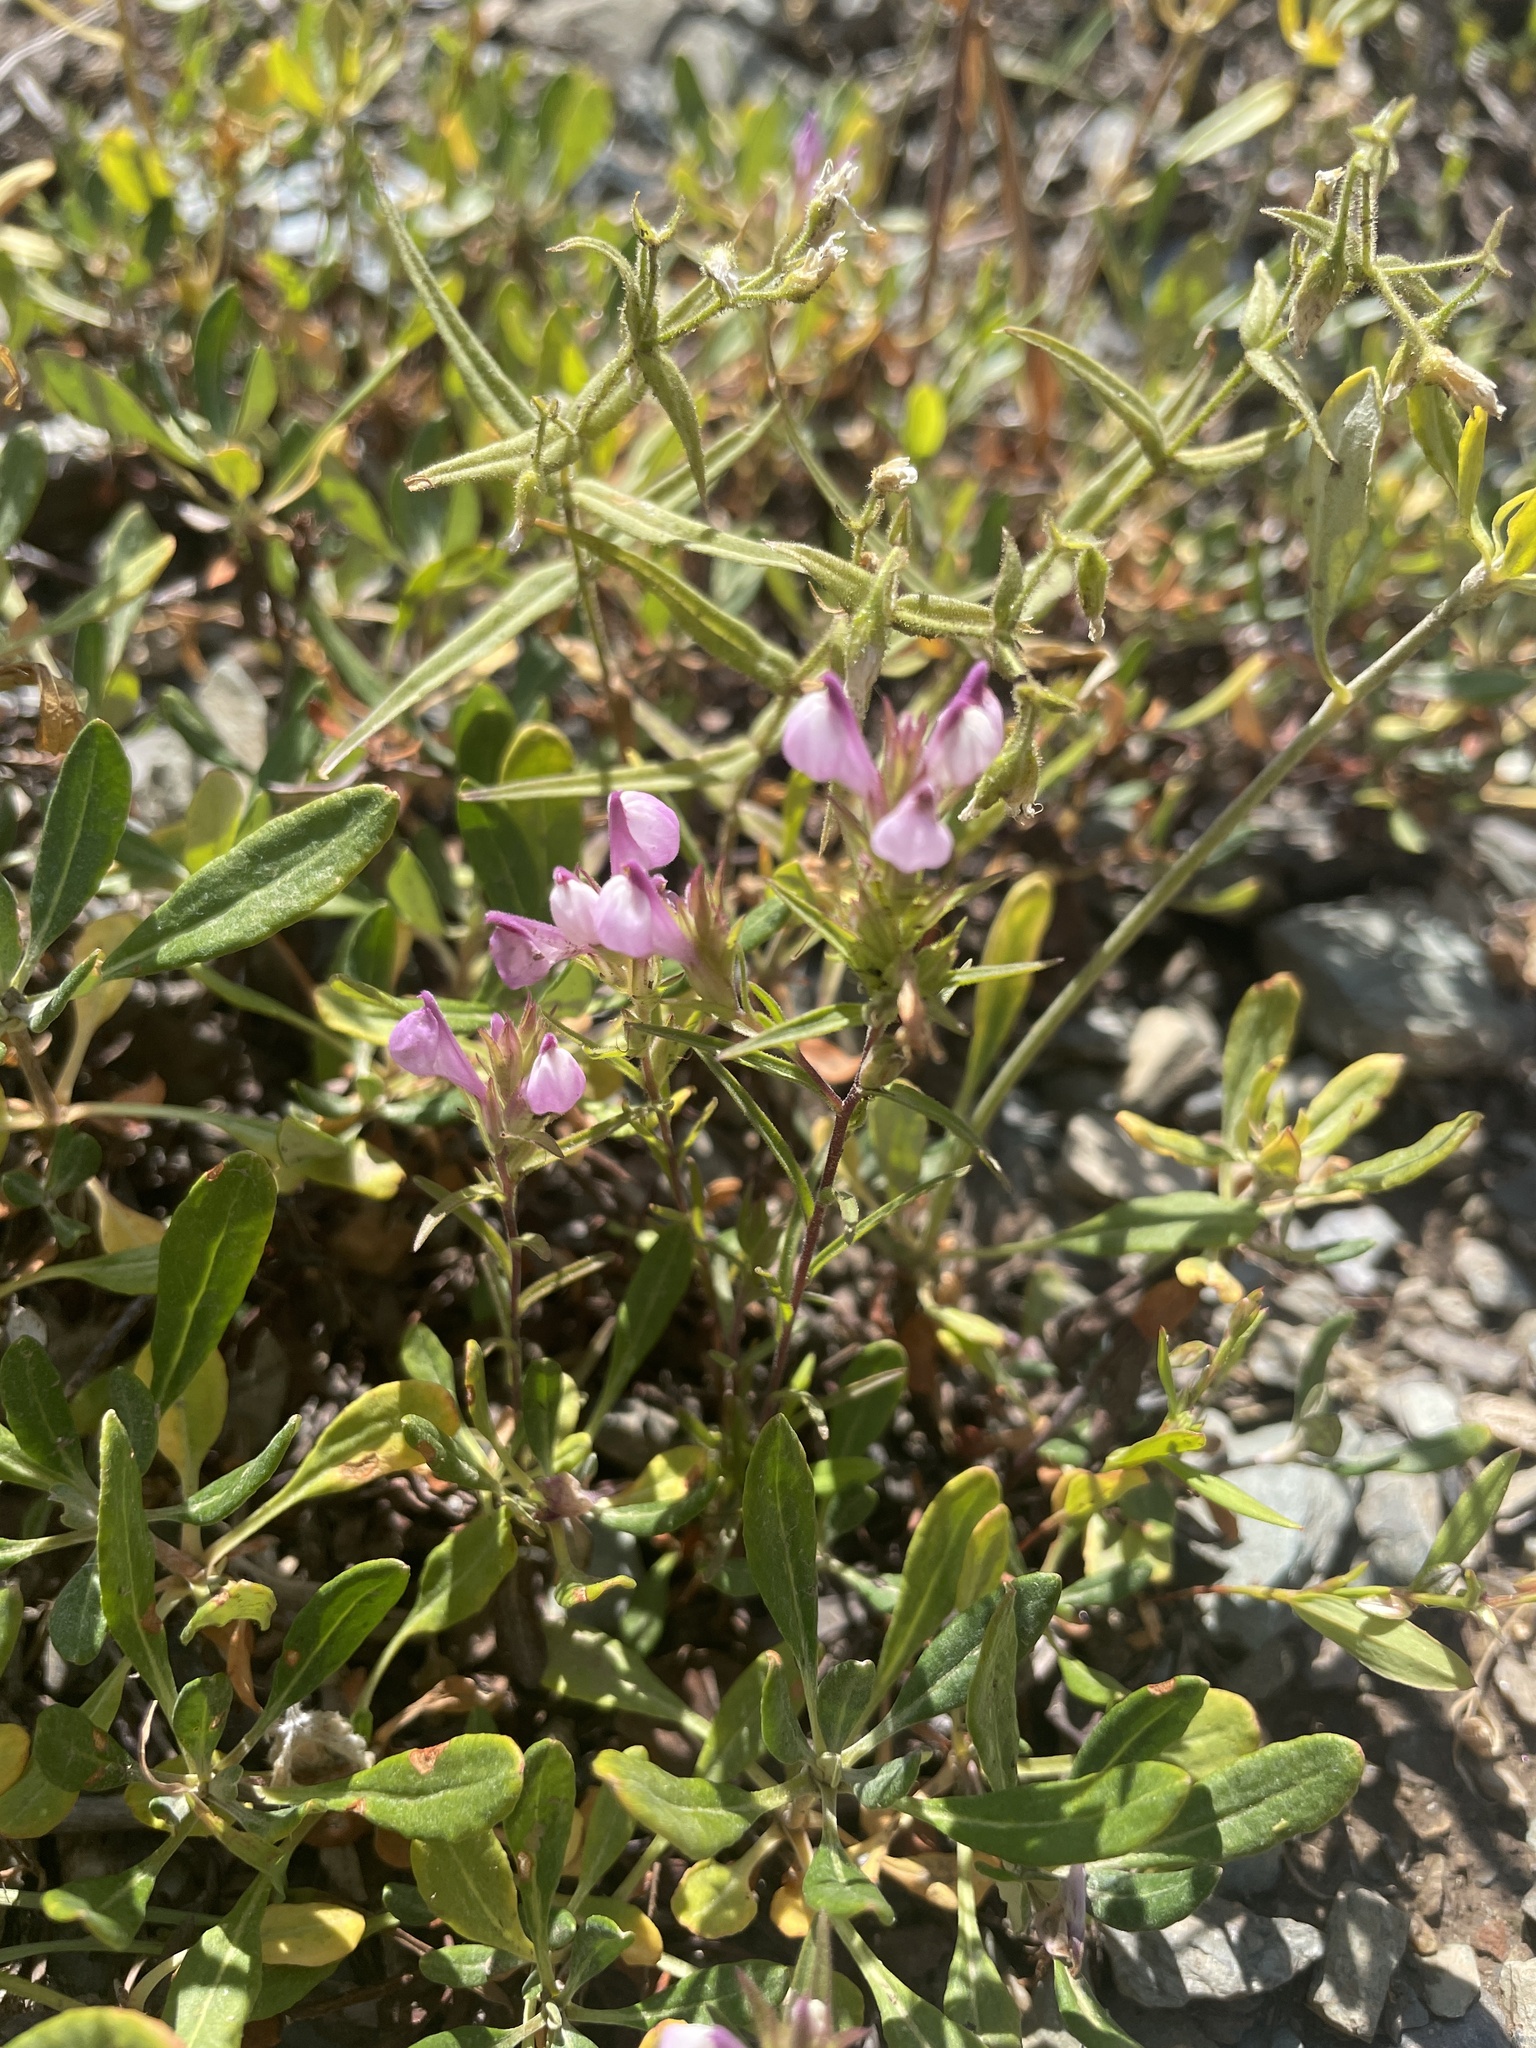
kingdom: Plantae
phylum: Tracheophyta
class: Magnoliopsida
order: Lamiales
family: Orobanchaceae
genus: Orthocarpus
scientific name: Orthocarpus holmgreniorum
